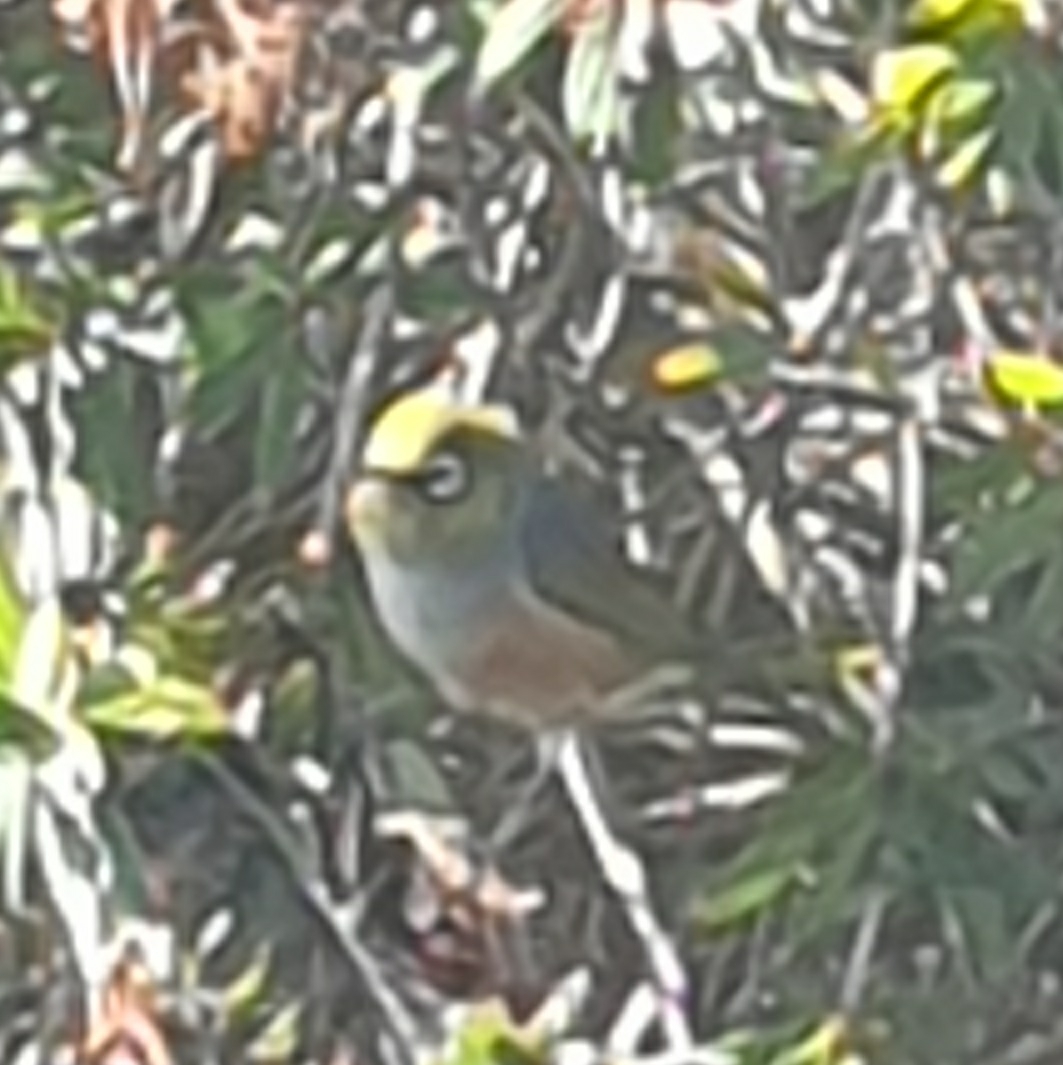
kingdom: Animalia
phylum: Chordata
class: Aves
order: Passeriformes
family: Zosteropidae
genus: Zosterops
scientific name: Zosterops lateralis
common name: Silvereye
